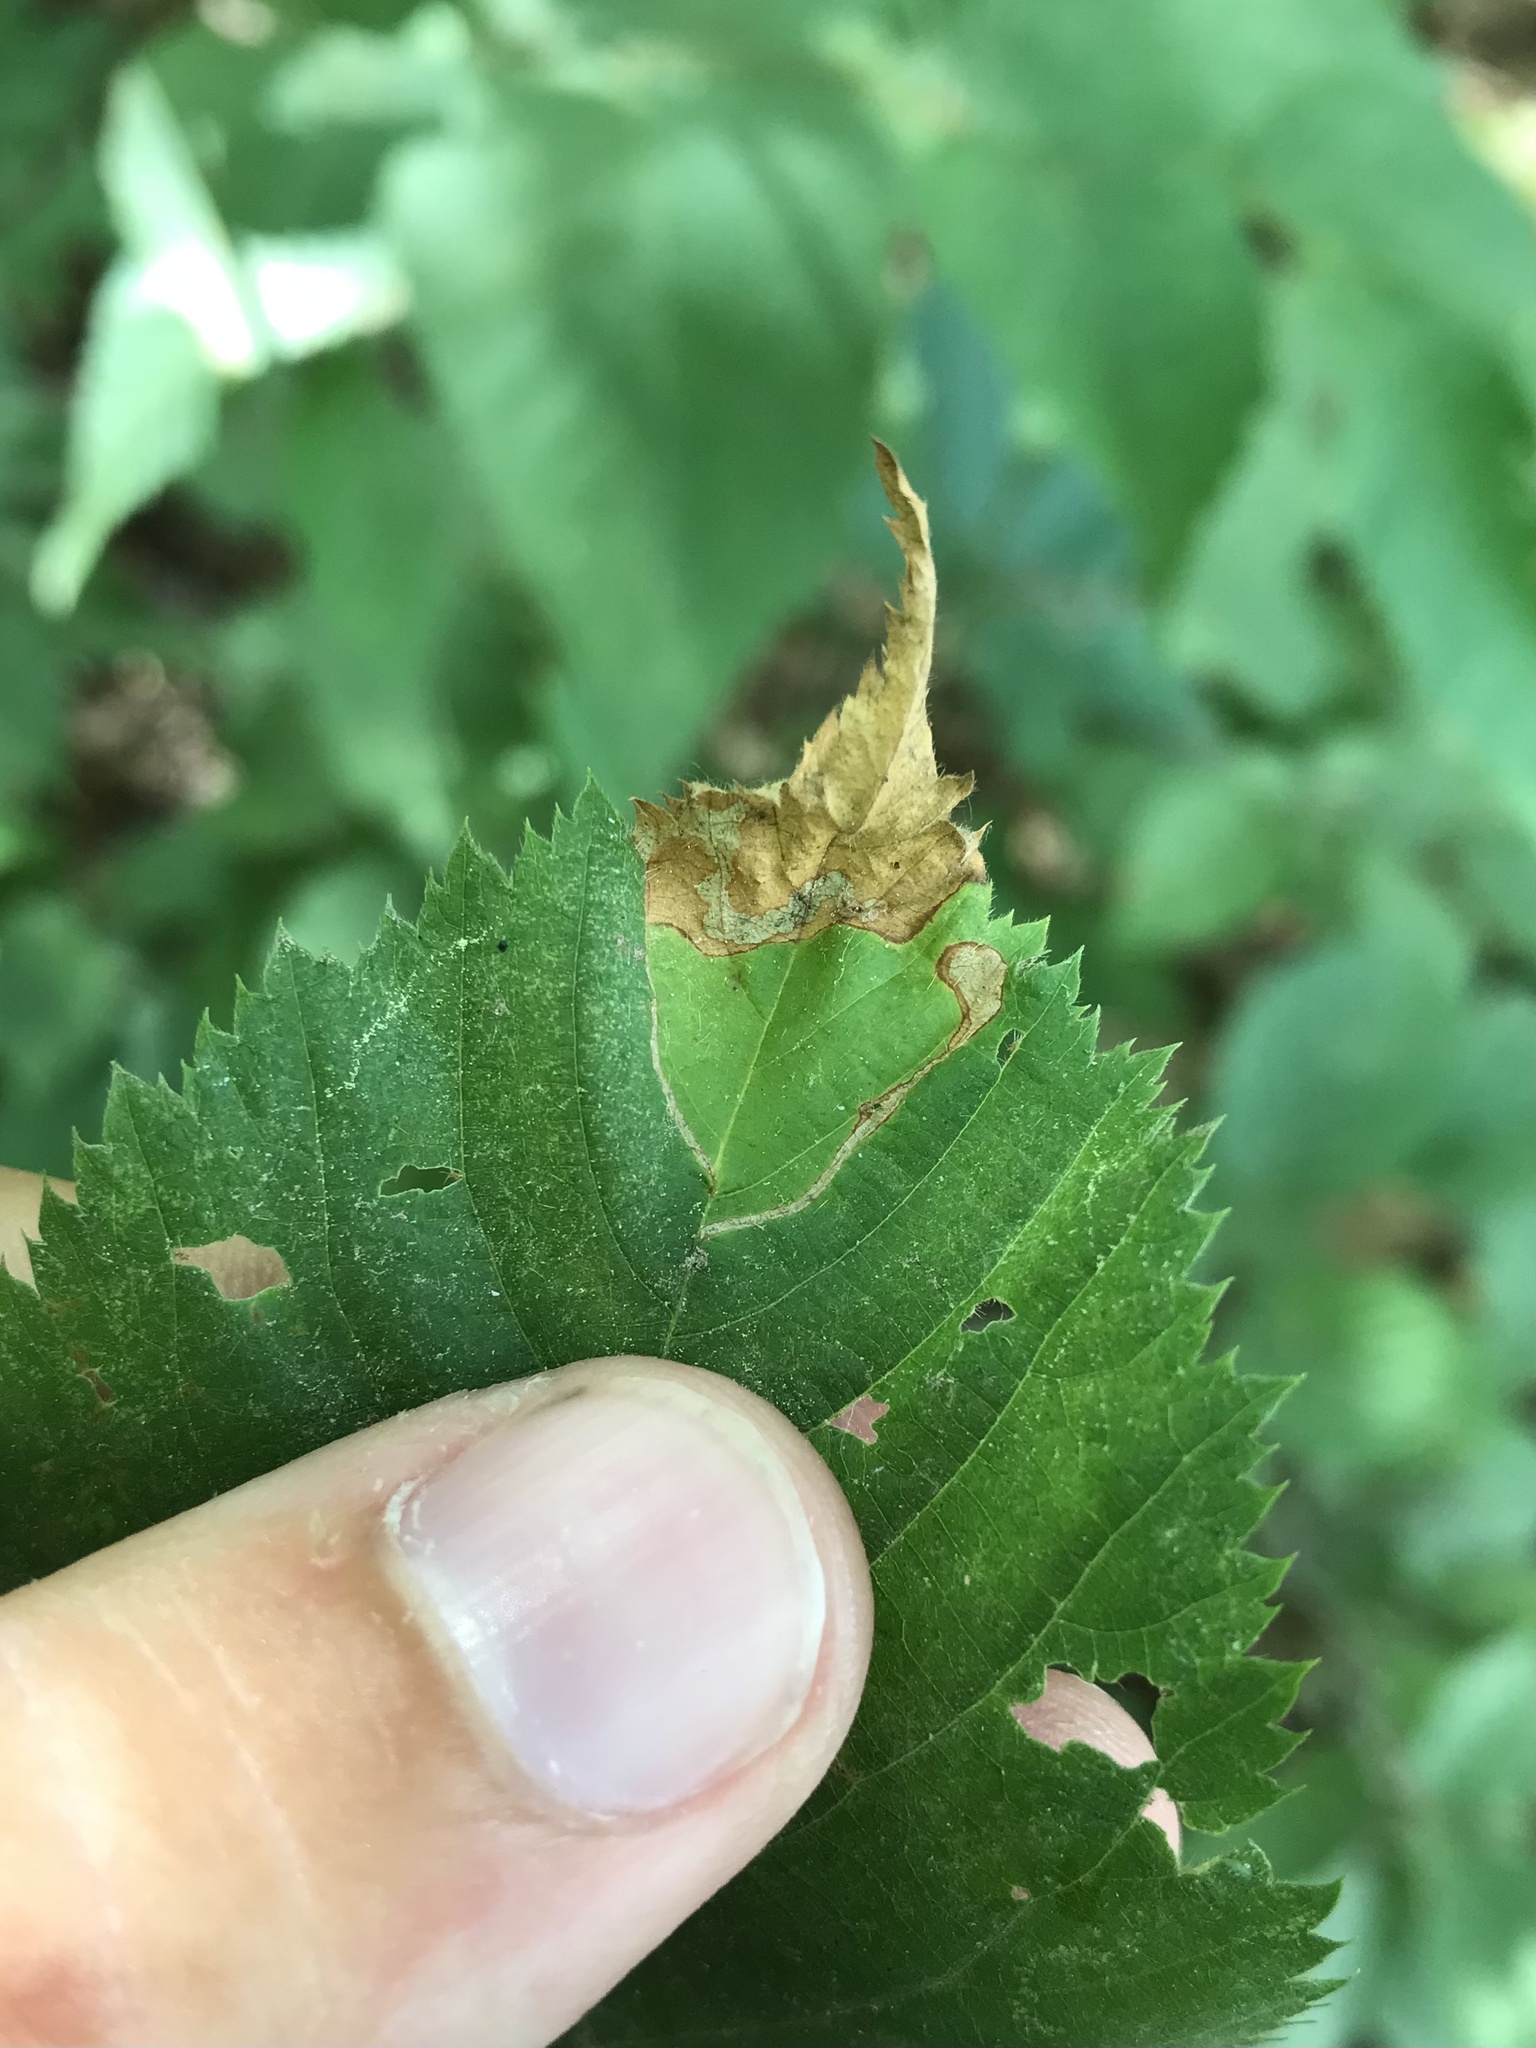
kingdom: Animalia
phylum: Arthropoda
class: Insecta
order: Coleoptera
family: Curculionidae
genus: Orchestes
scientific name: Orchestes mixtus
